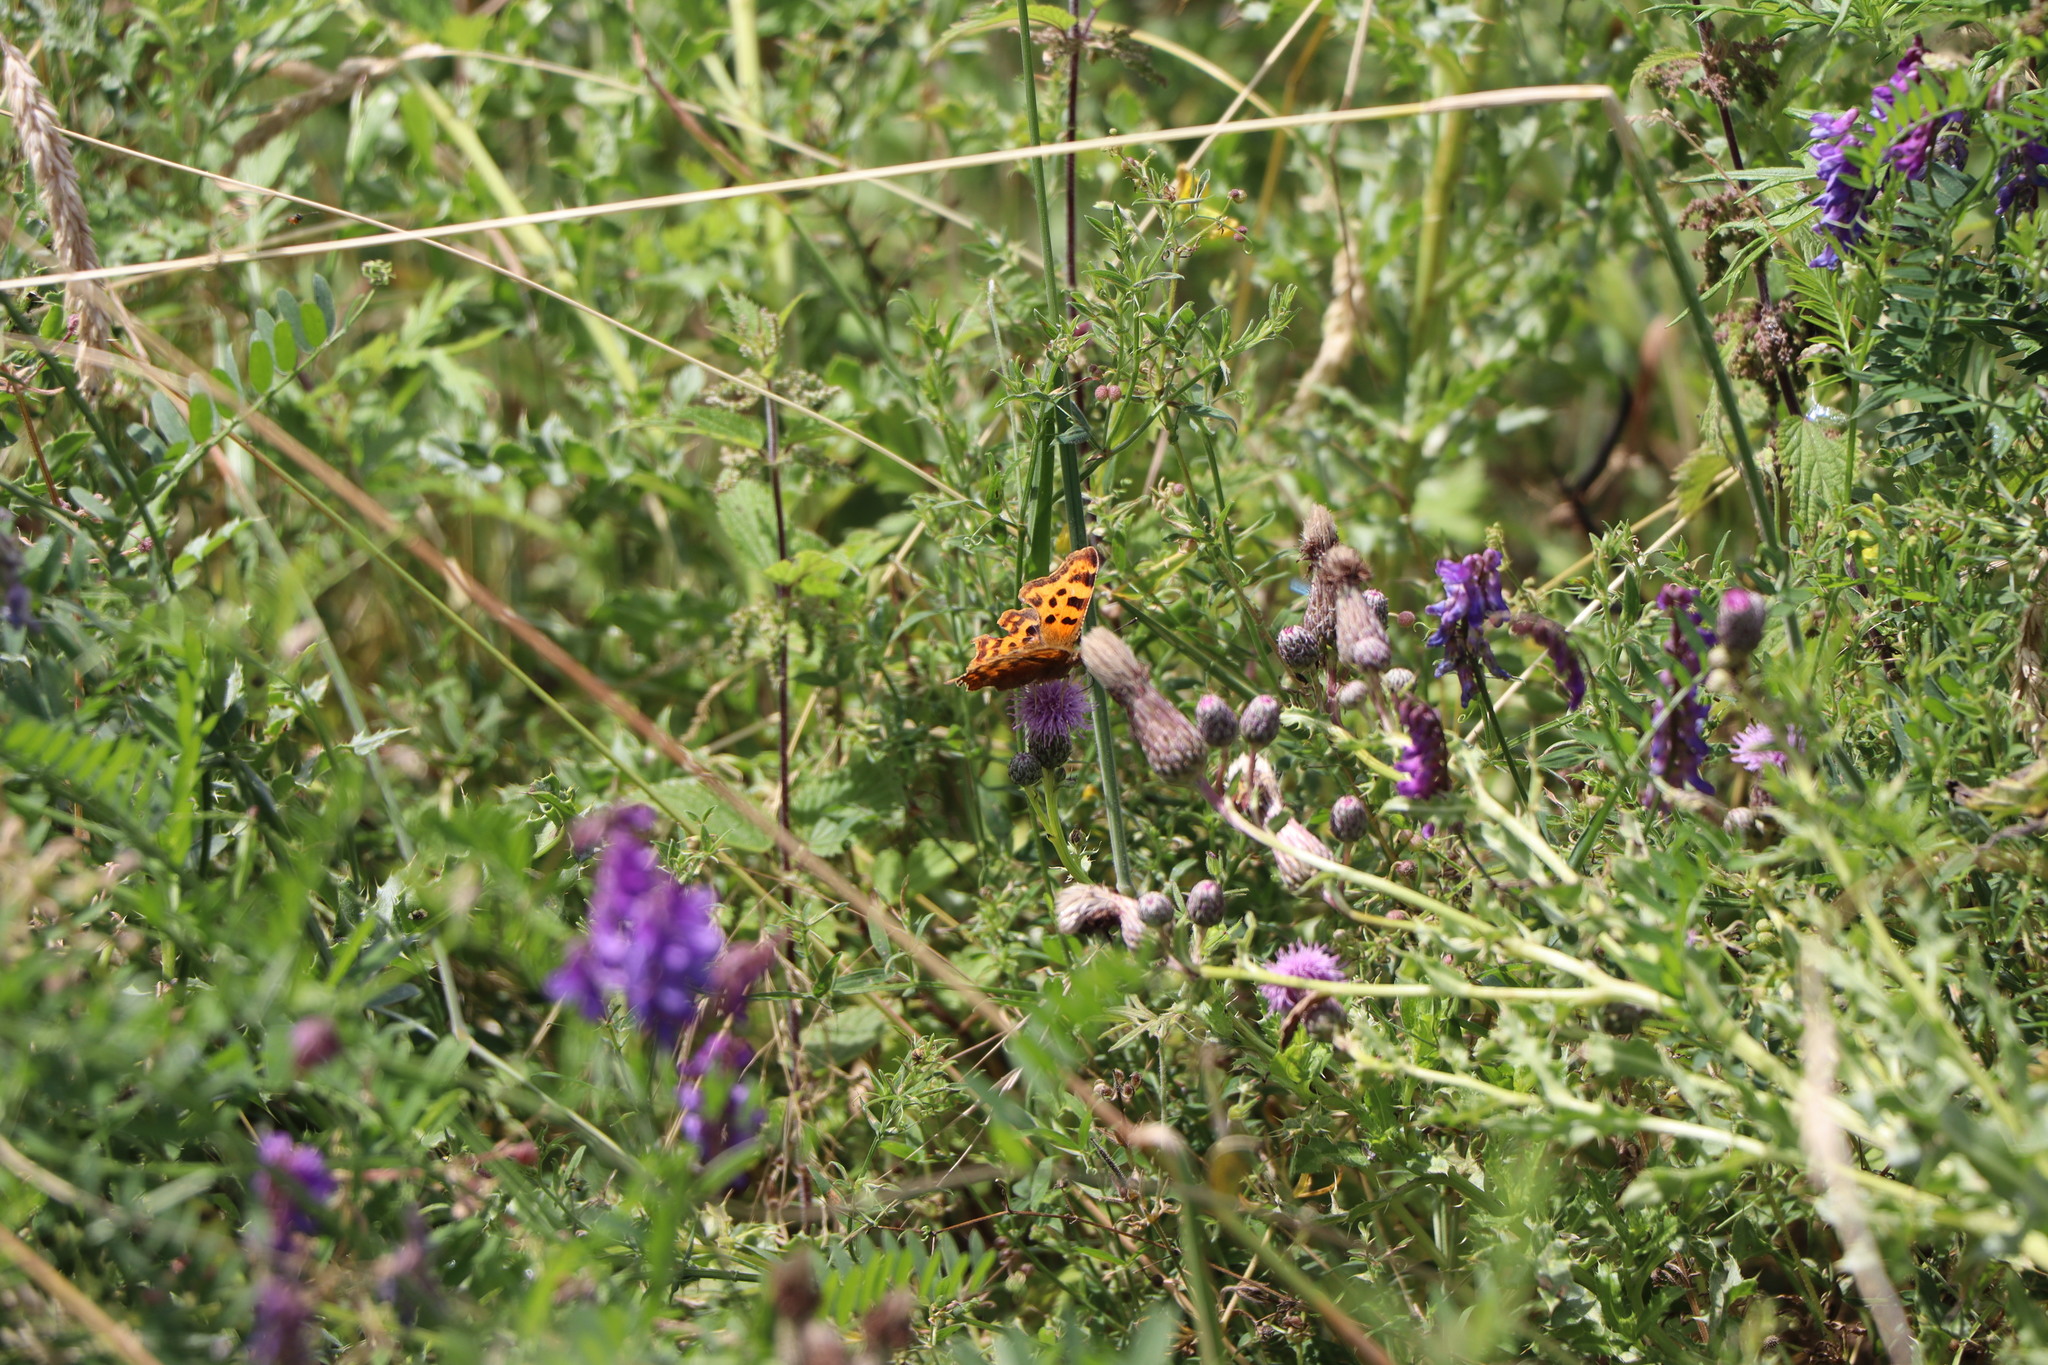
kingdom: Animalia
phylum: Arthropoda
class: Insecta
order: Lepidoptera
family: Nymphalidae
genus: Polygonia
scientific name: Polygonia c-album
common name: Comma
